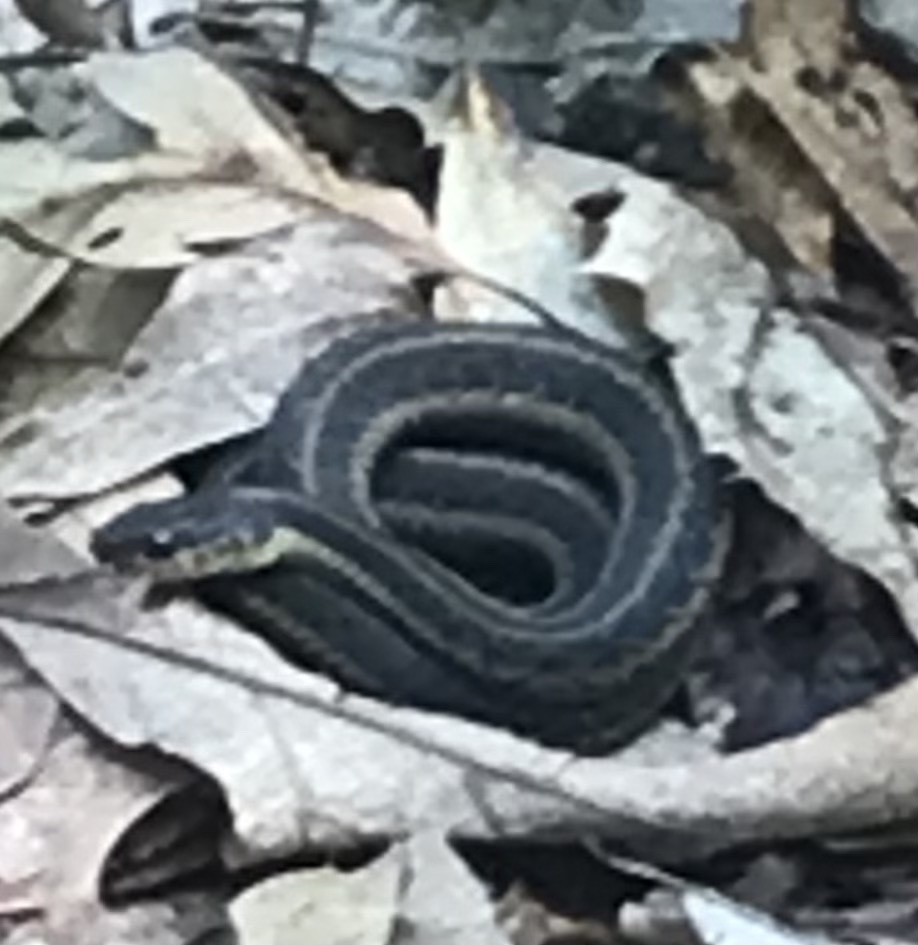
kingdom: Animalia
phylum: Chordata
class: Squamata
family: Colubridae
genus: Thamnophis
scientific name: Thamnophis sirtalis
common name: Common garter snake
